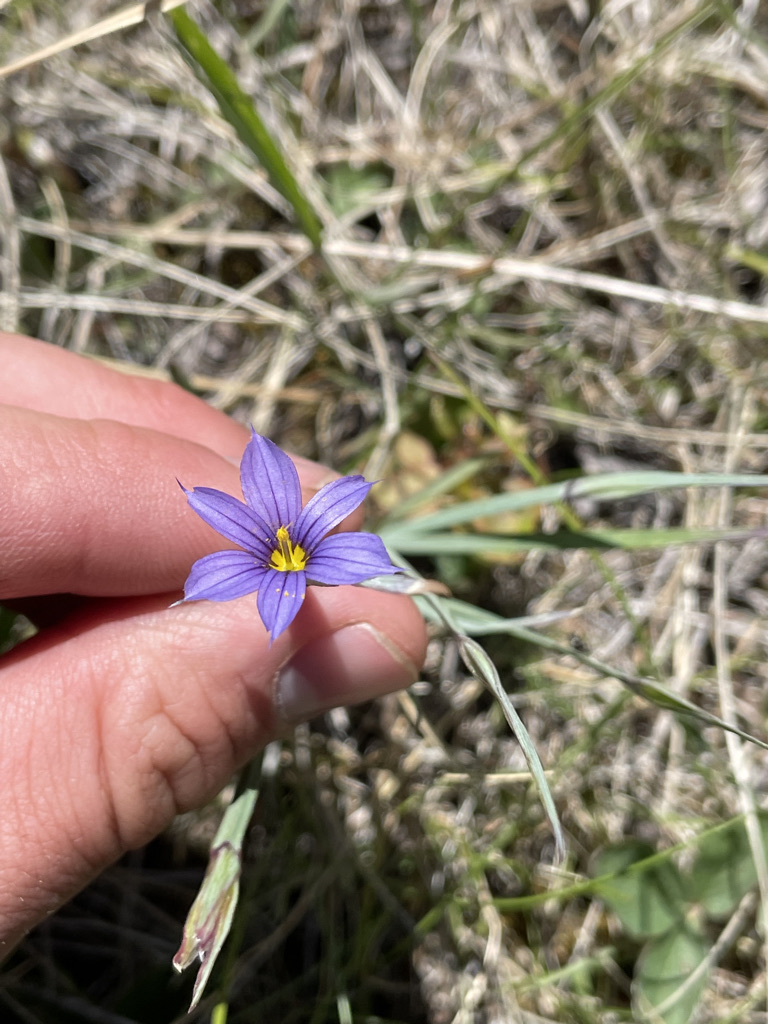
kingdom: Plantae
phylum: Tracheophyta
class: Liliopsida
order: Asparagales
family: Iridaceae
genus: Sisyrinchium
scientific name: Sisyrinchium montanum
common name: American blue-eyed-grass
